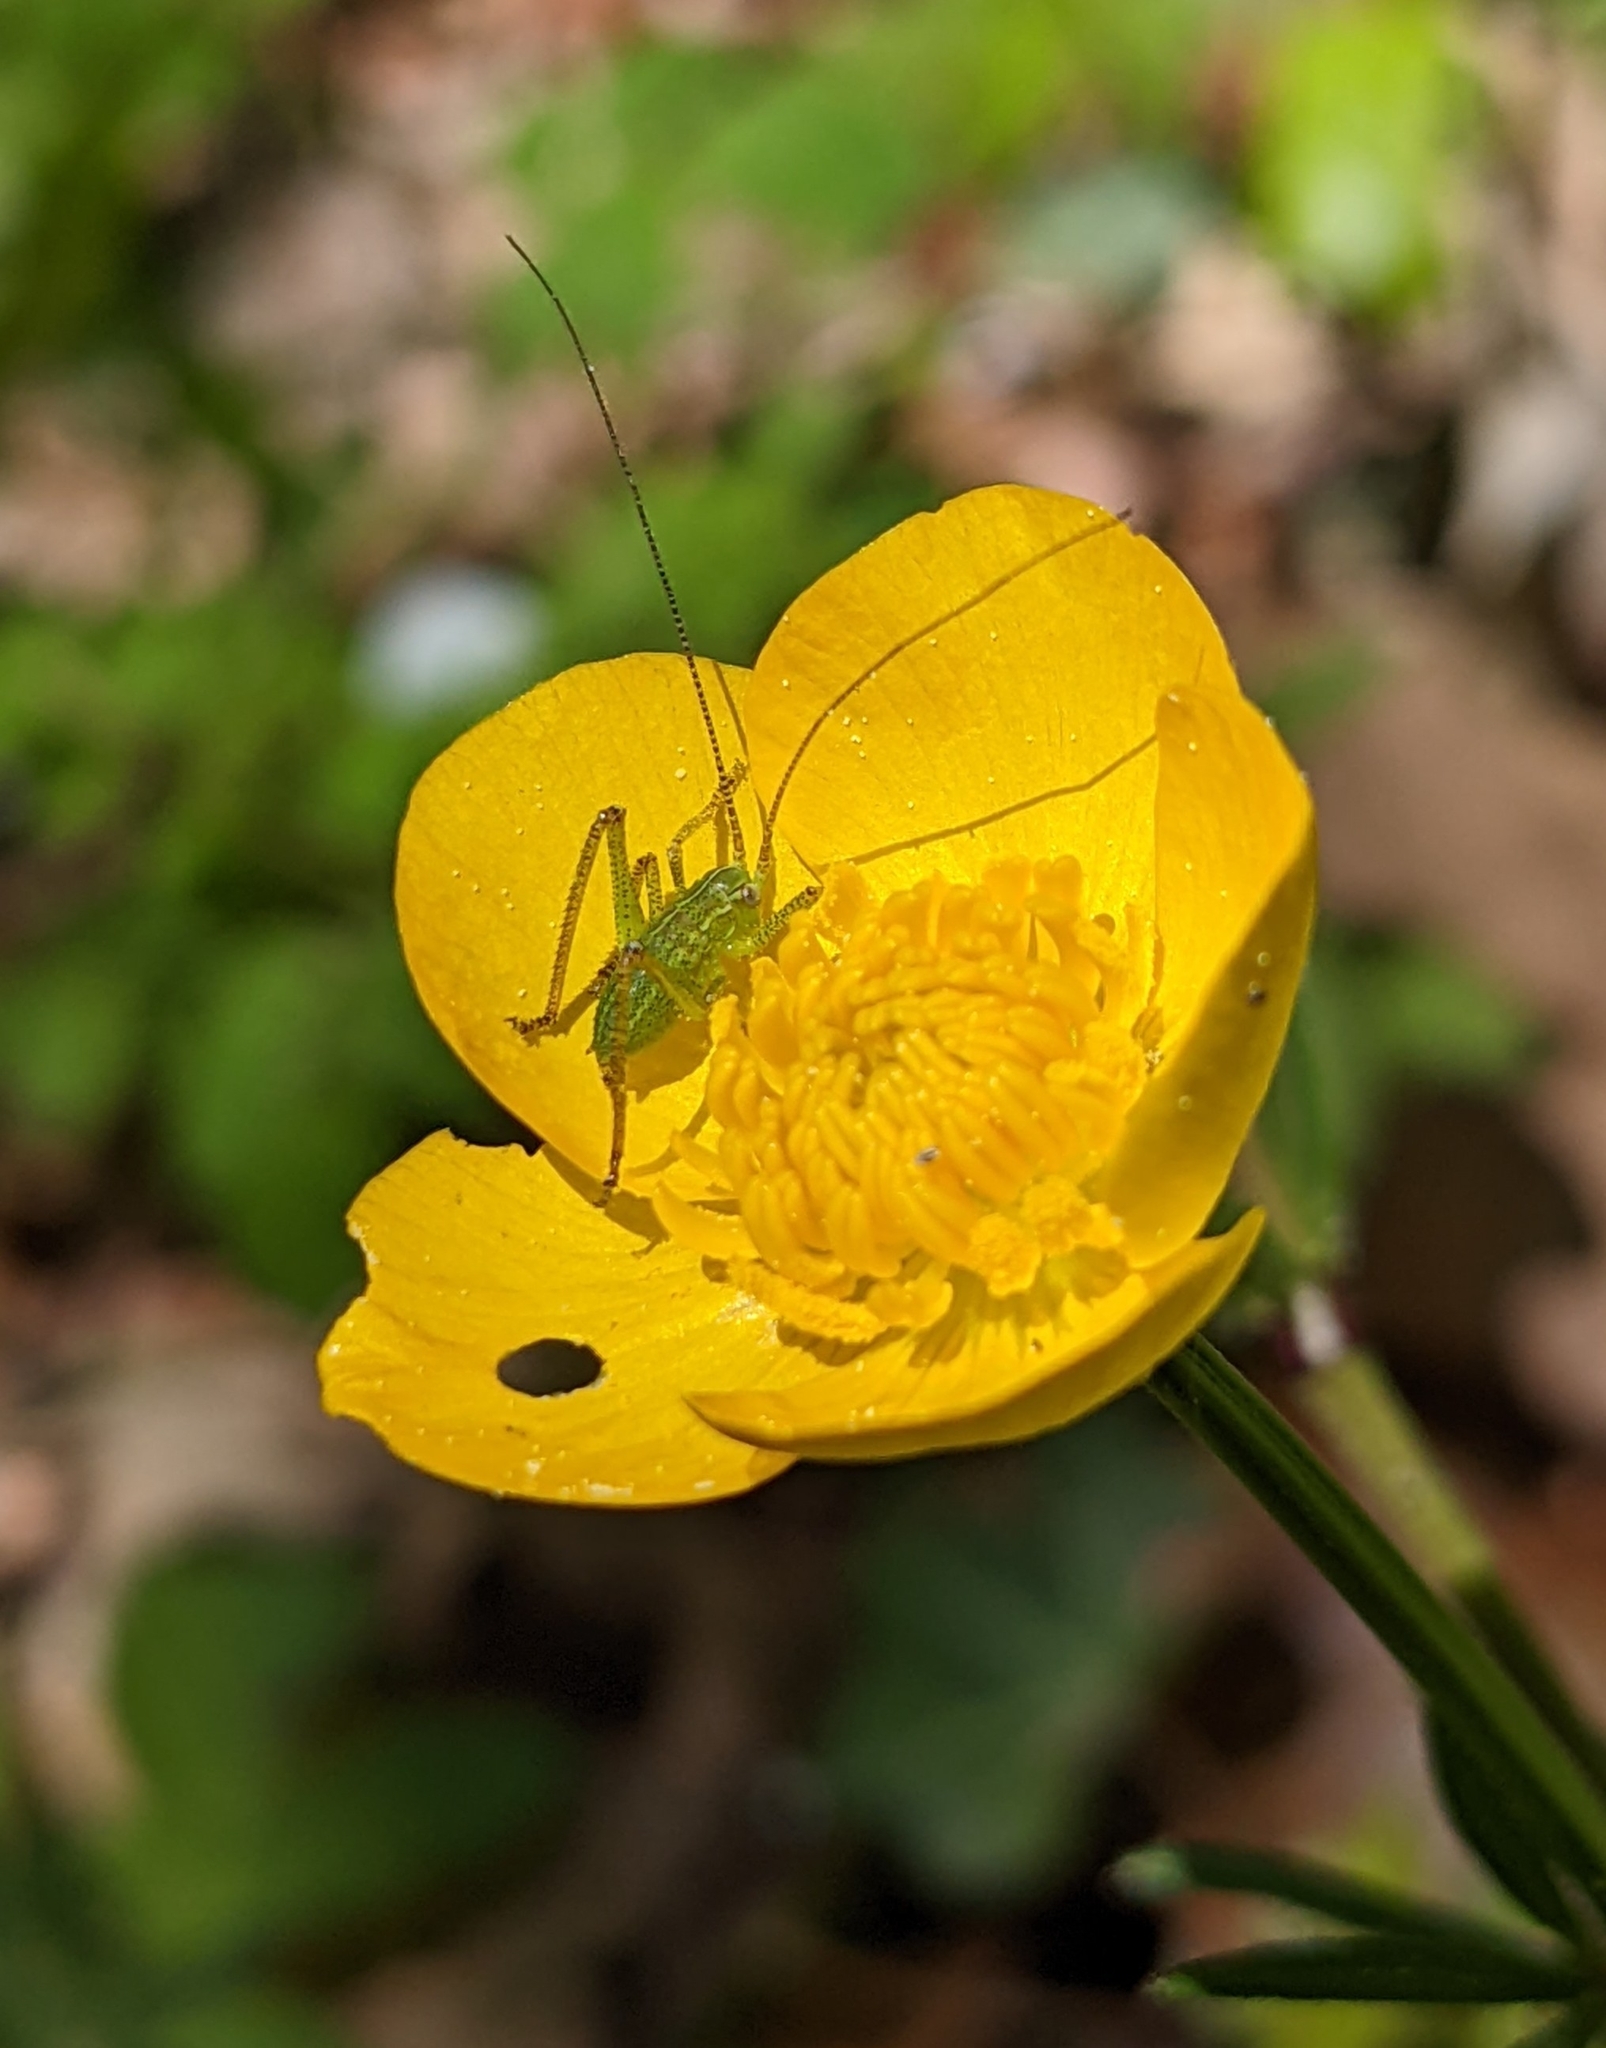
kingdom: Animalia
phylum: Arthropoda
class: Insecta
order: Orthoptera
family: Tettigoniidae
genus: Barbitistes
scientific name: Barbitistes serricauda
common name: Saw-tailed bush-cricket
